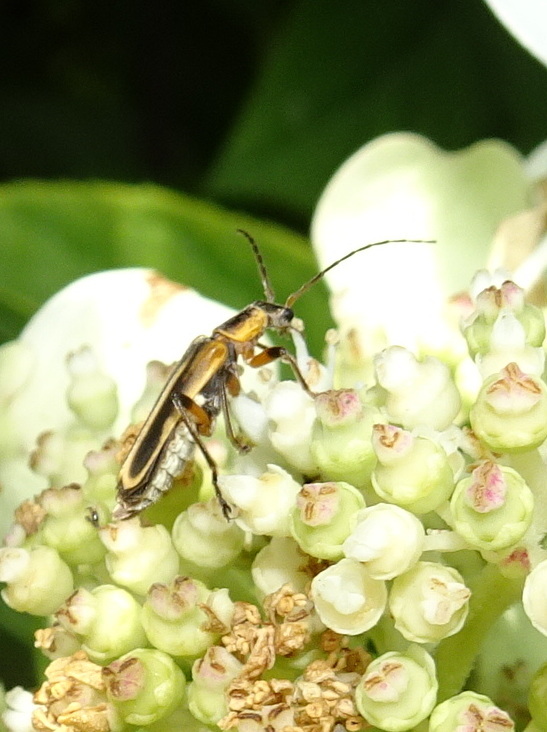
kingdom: Animalia
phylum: Arthropoda
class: Insecta
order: Coleoptera
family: Cantharidae
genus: Chauliognathus
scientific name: Chauliognathus marginatus
